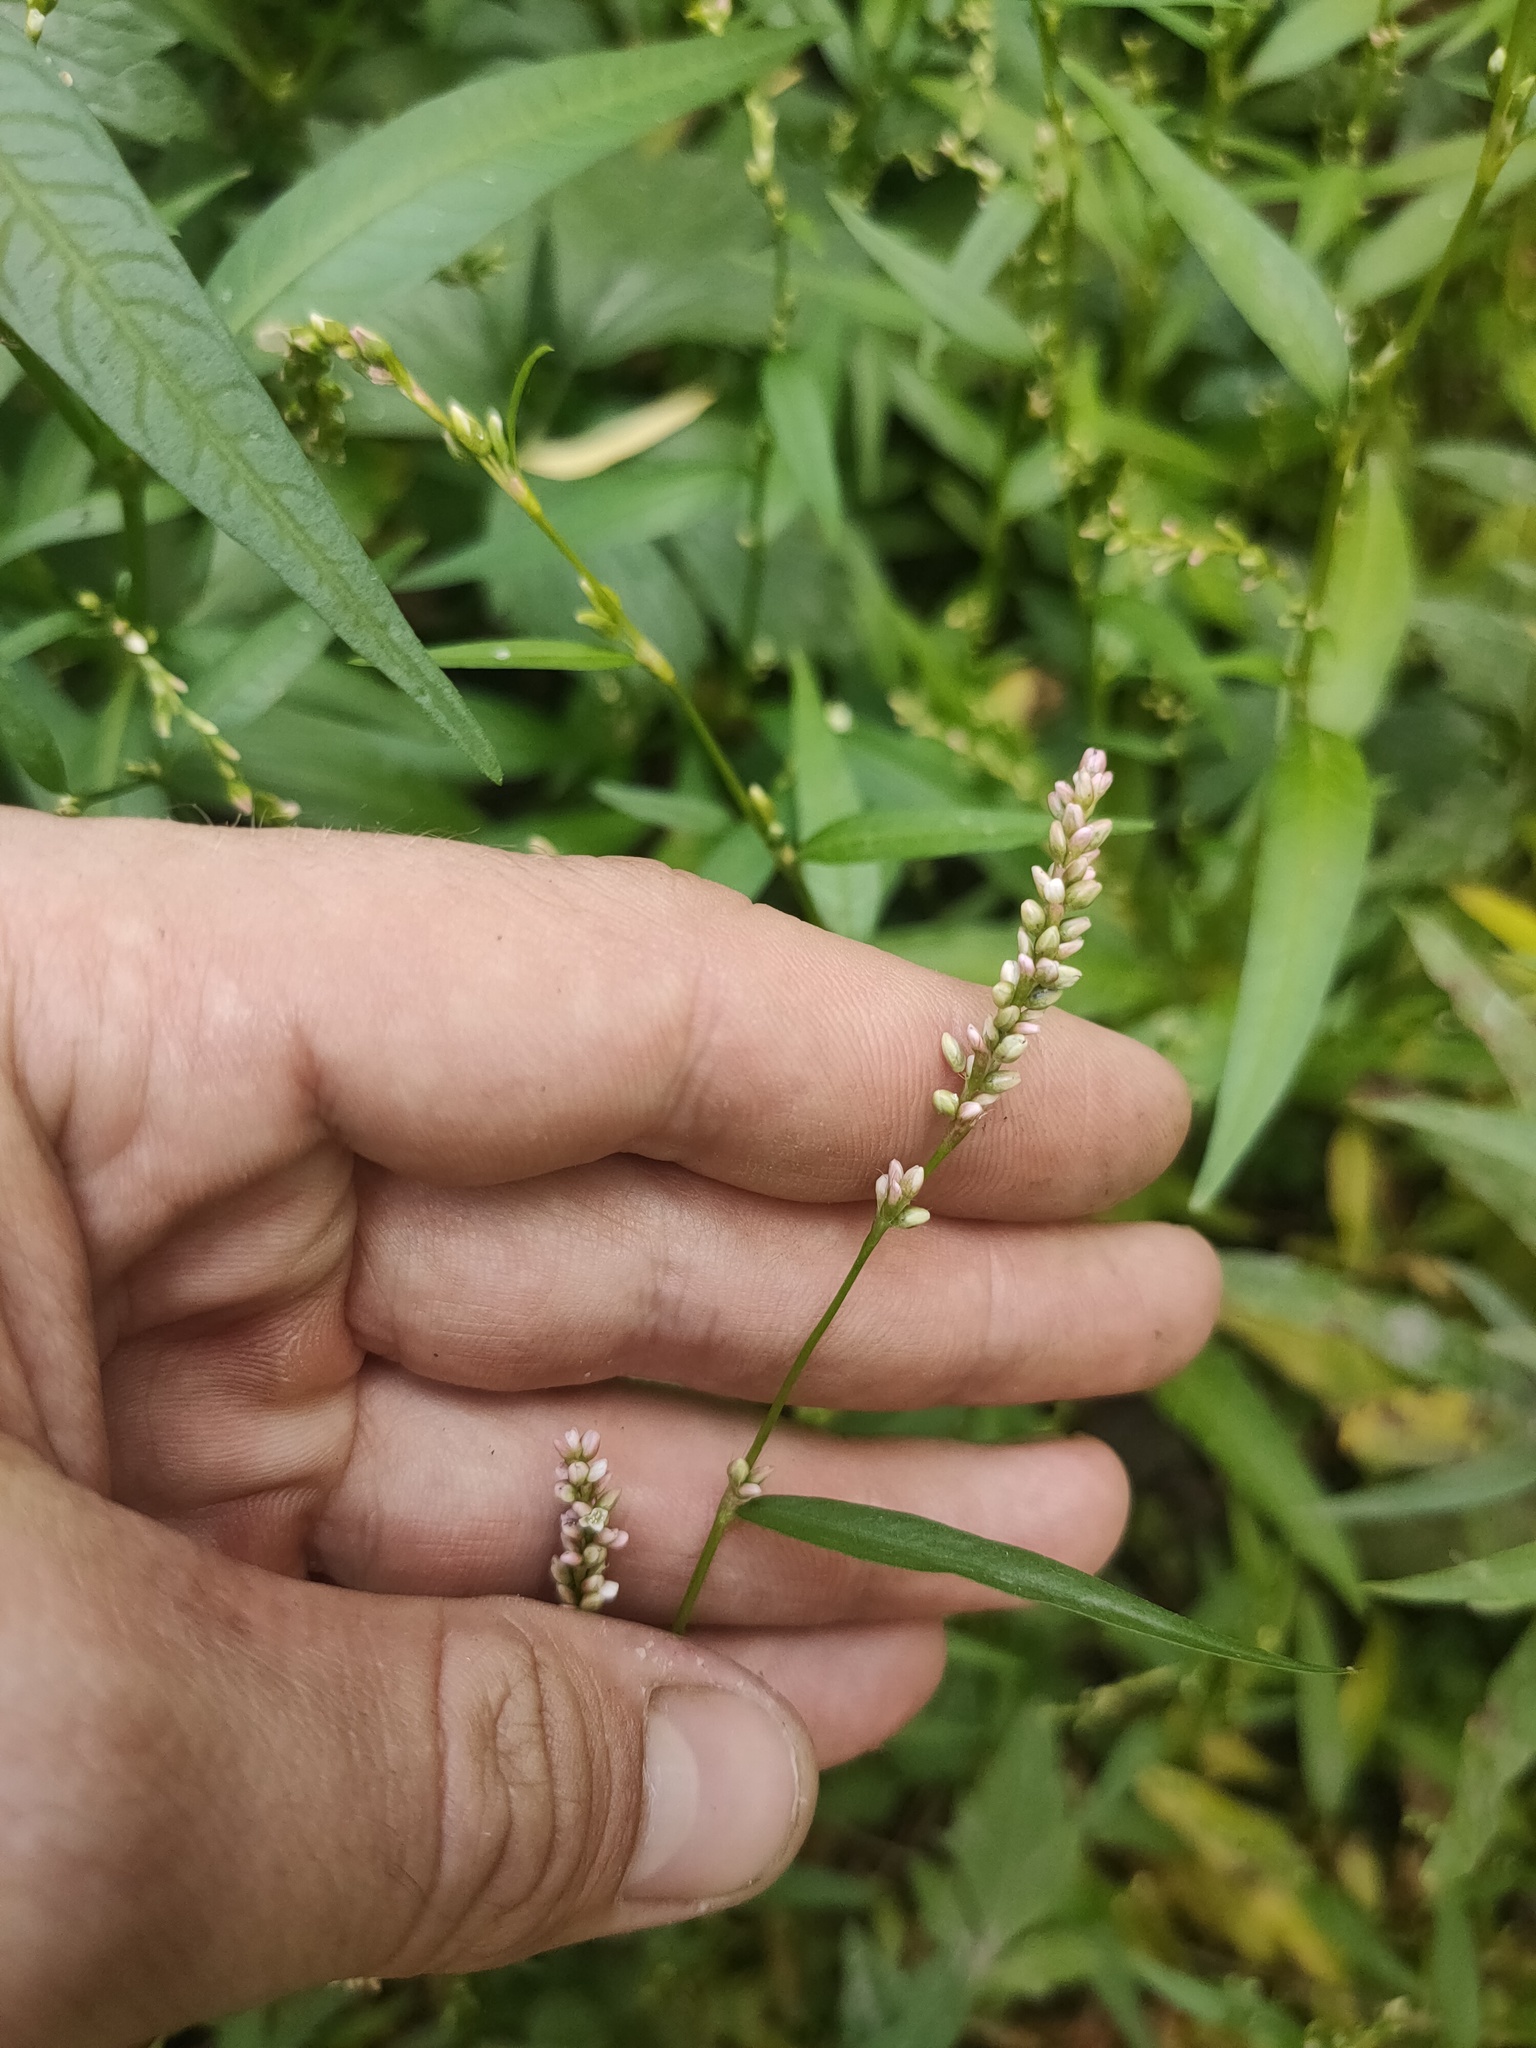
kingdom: Plantae
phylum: Tracheophyta
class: Magnoliopsida
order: Caryophyllales
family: Polygonaceae
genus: Persicaria
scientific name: Persicaria minor
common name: Small water-pepper
